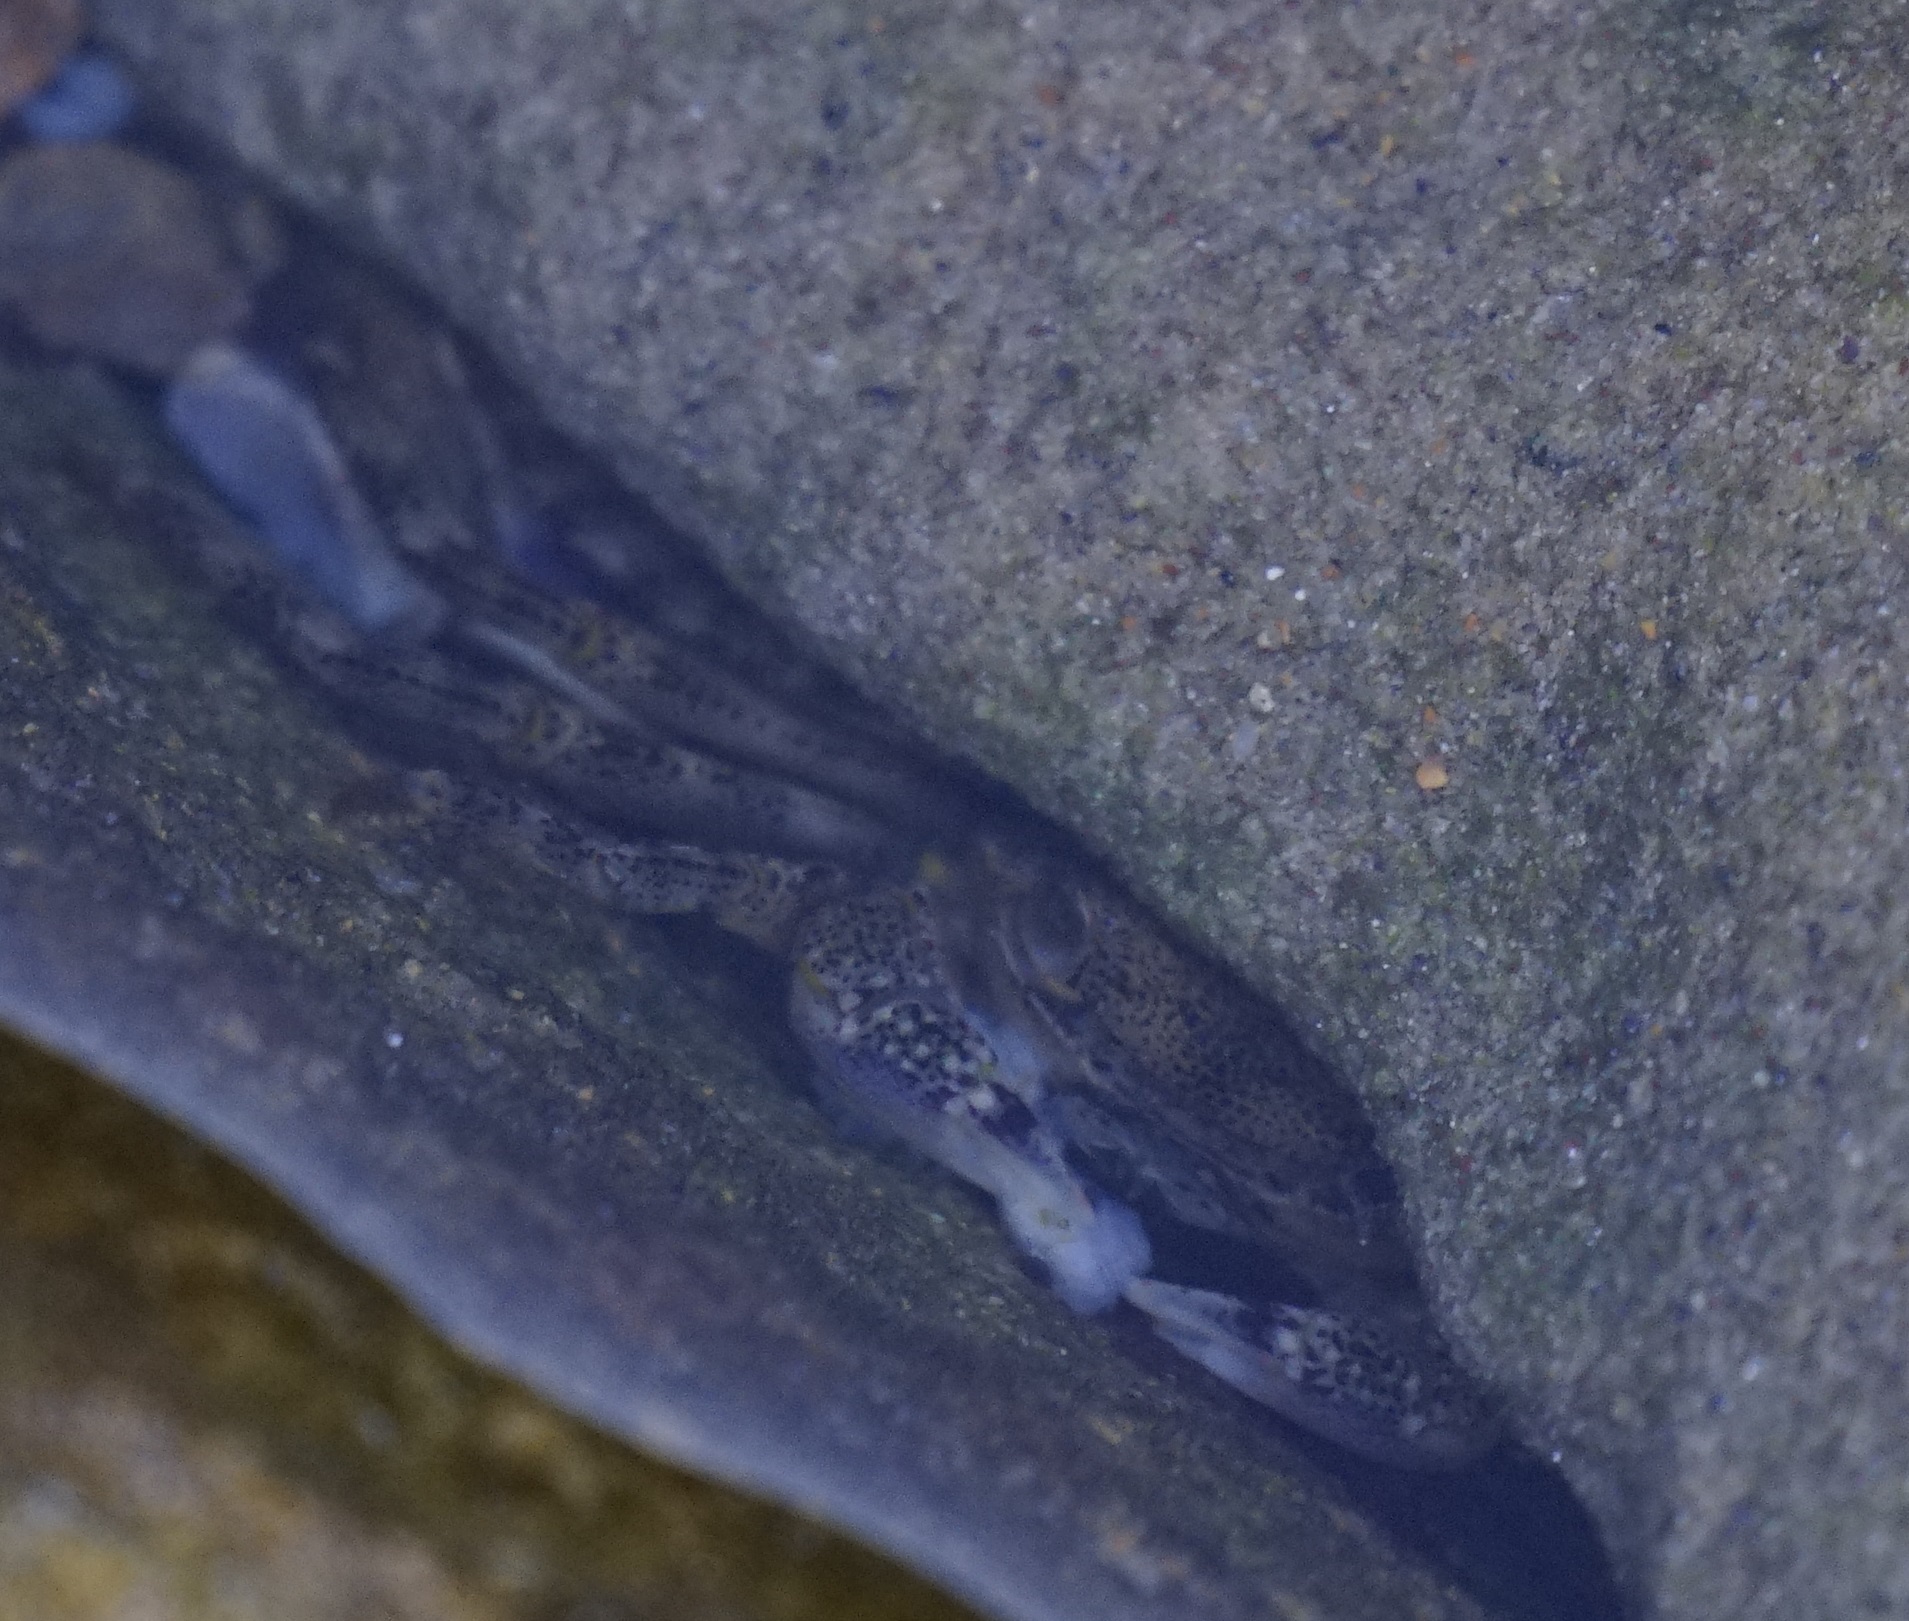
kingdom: Animalia
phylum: Arthropoda
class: Malacostraca
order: Decapoda
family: Grapsidae
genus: Leptograpsus
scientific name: Leptograpsus variegatus
